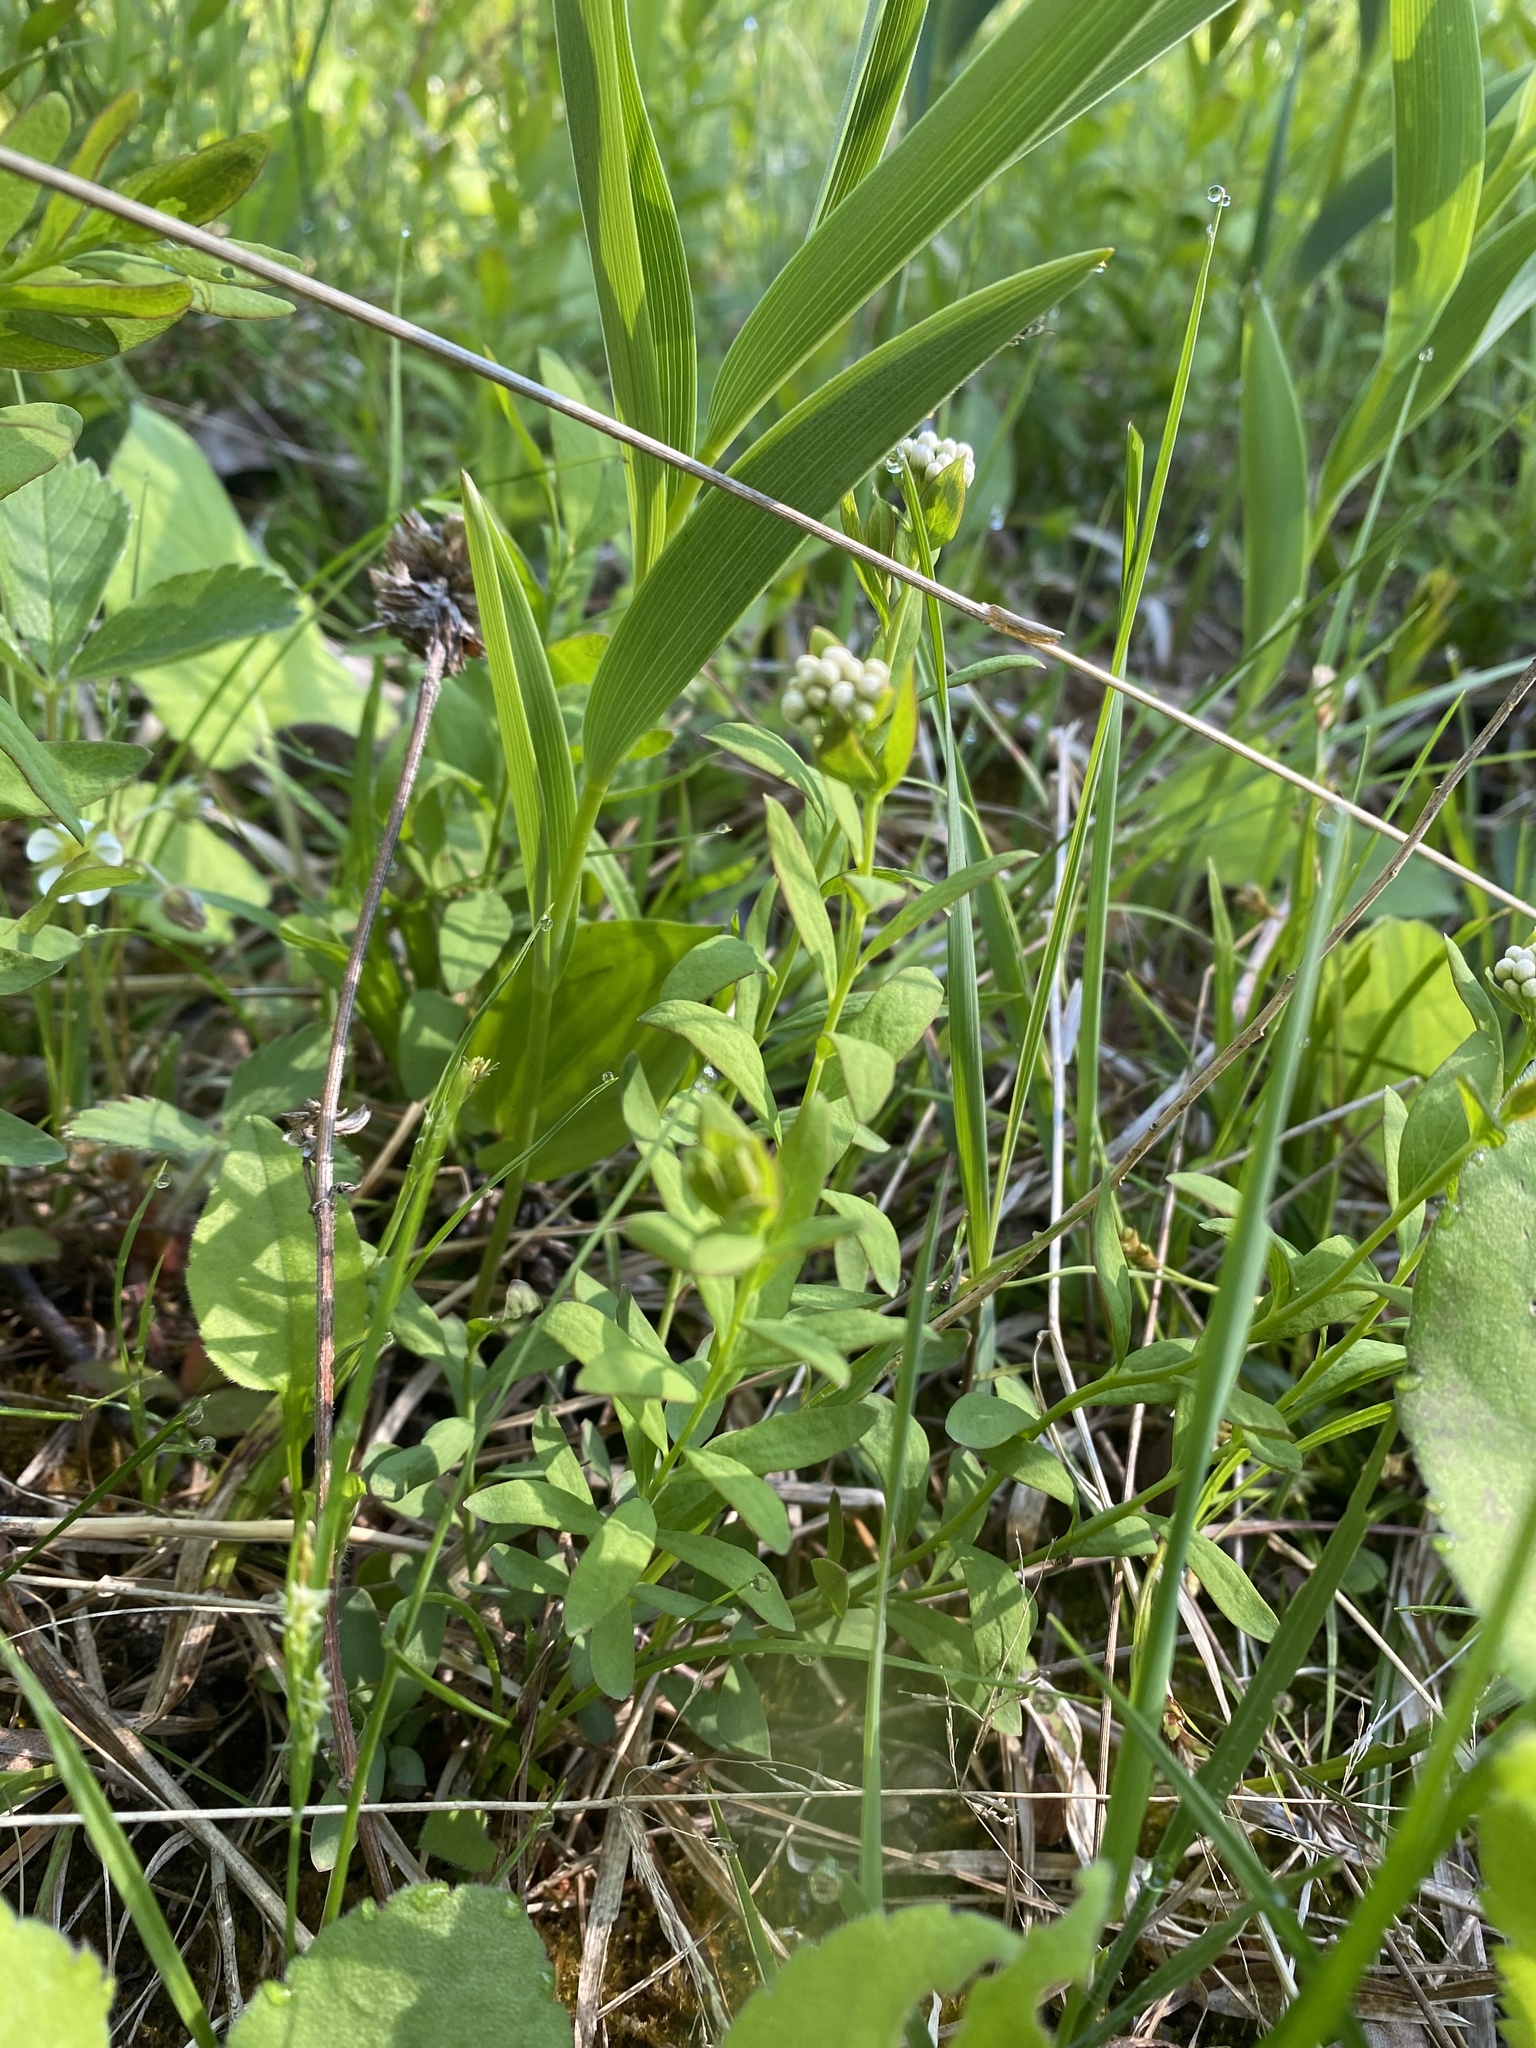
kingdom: Plantae
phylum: Tracheophyta
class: Magnoliopsida
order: Santalales
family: Comandraceae
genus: Comandra
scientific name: Comandra umbellata
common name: Bastard toadflax
